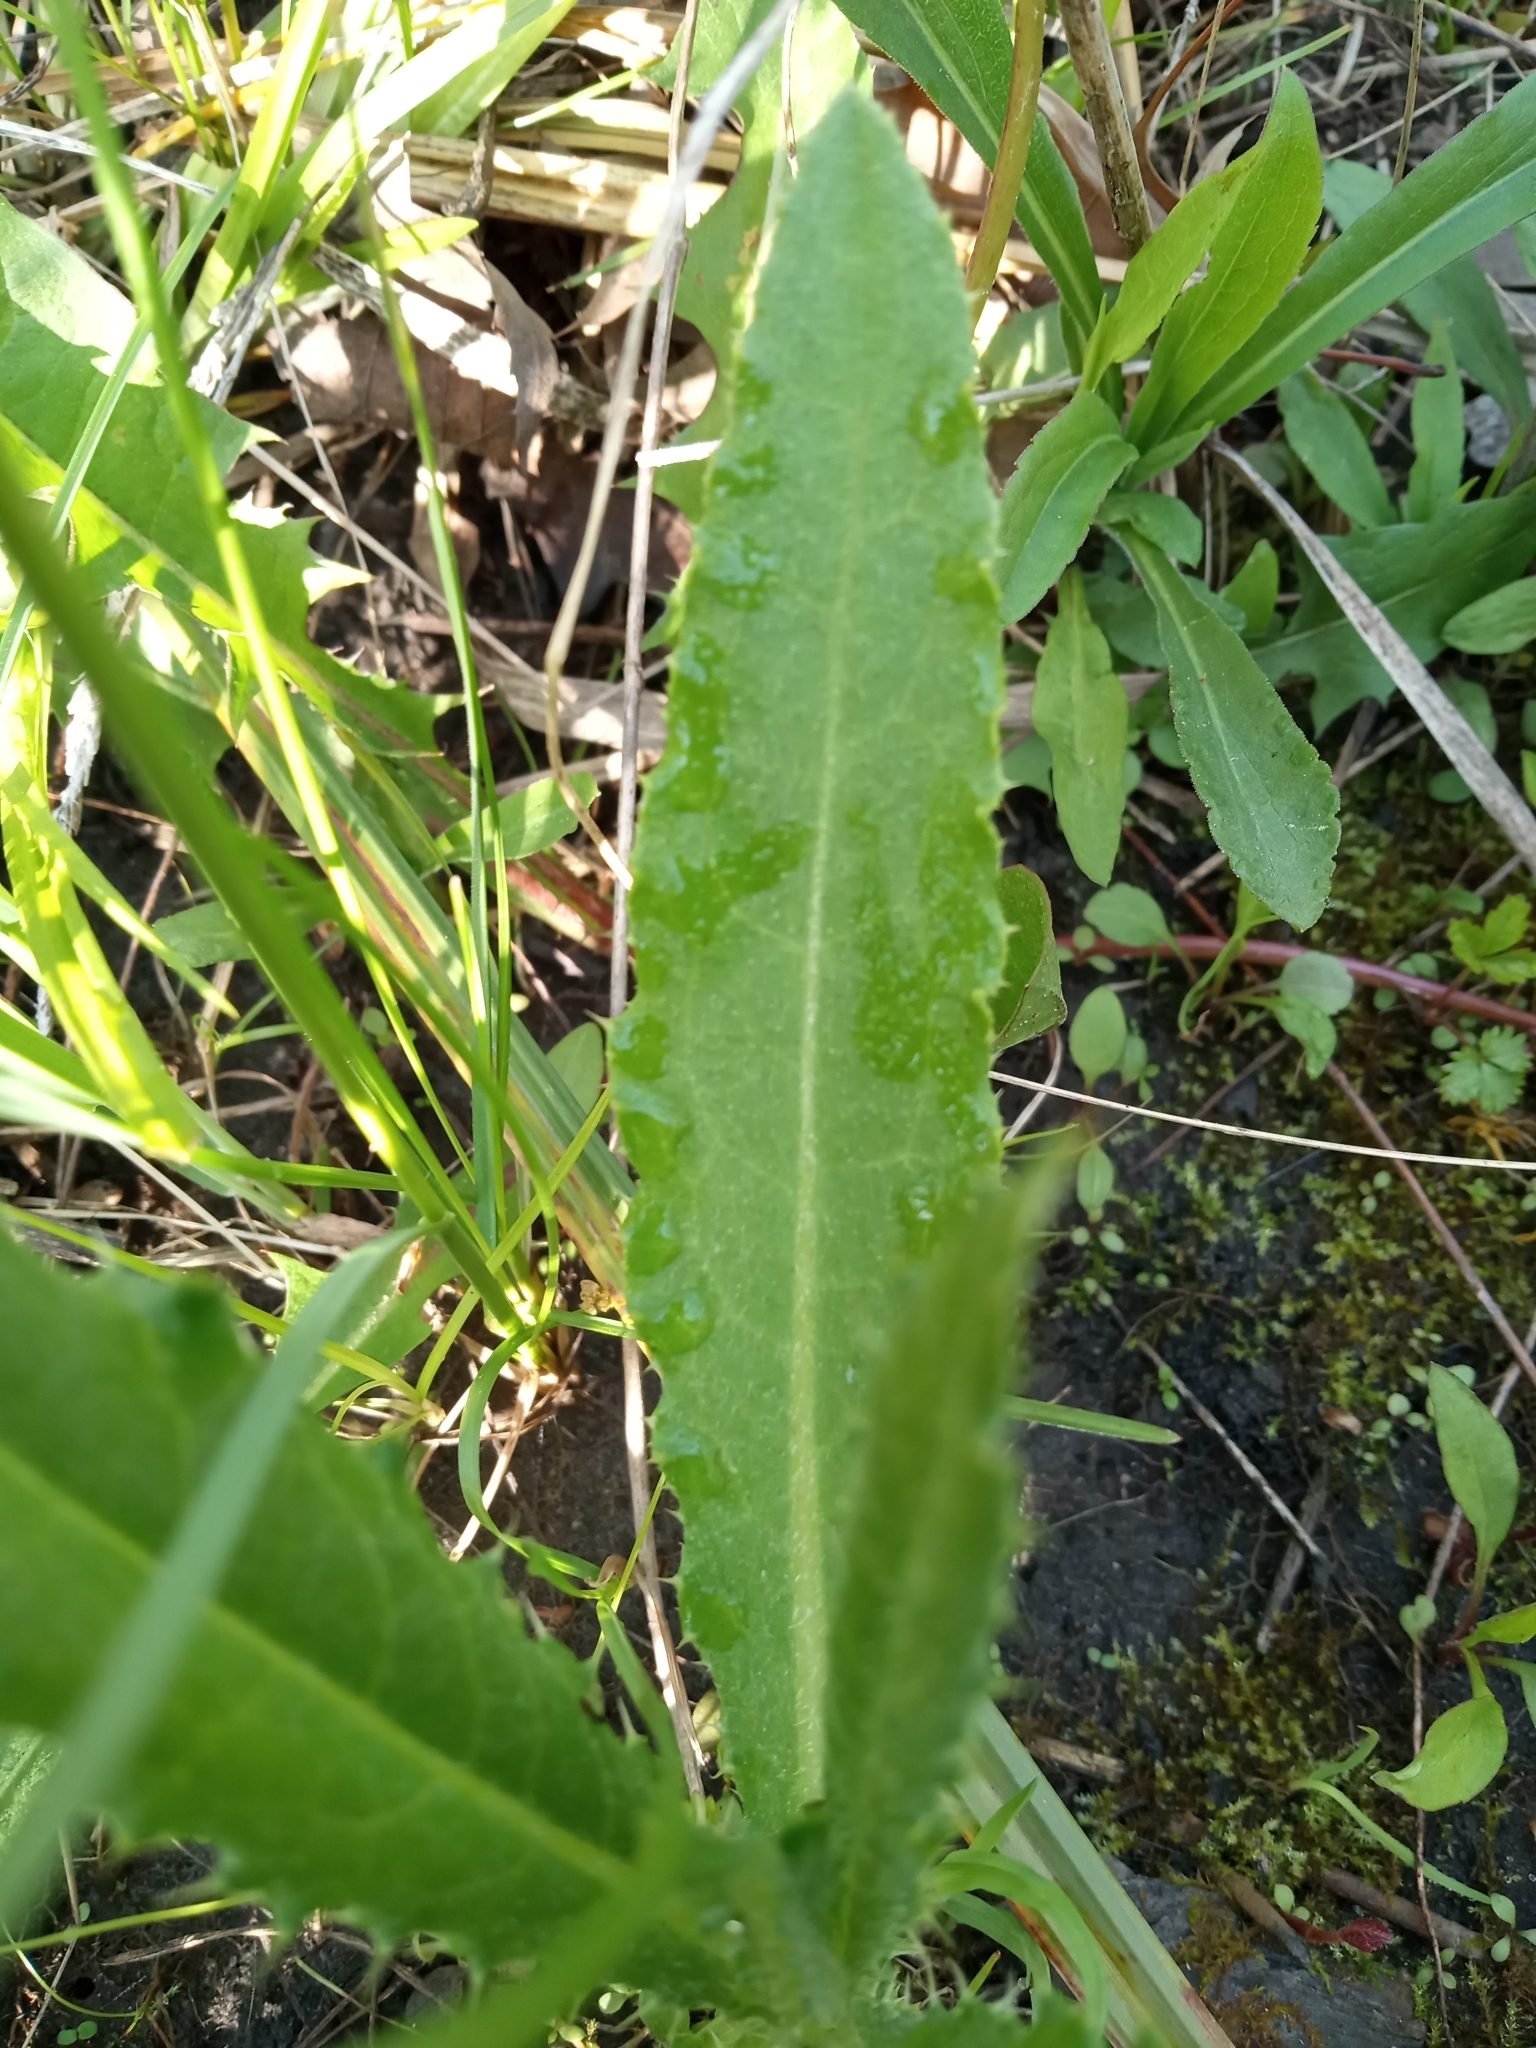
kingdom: Plantae
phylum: Tracheophyta
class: Magnoliopsida
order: Asterales
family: Asteraceae
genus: Cirsium
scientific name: Cirsium arvense
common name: Creeping thistle
